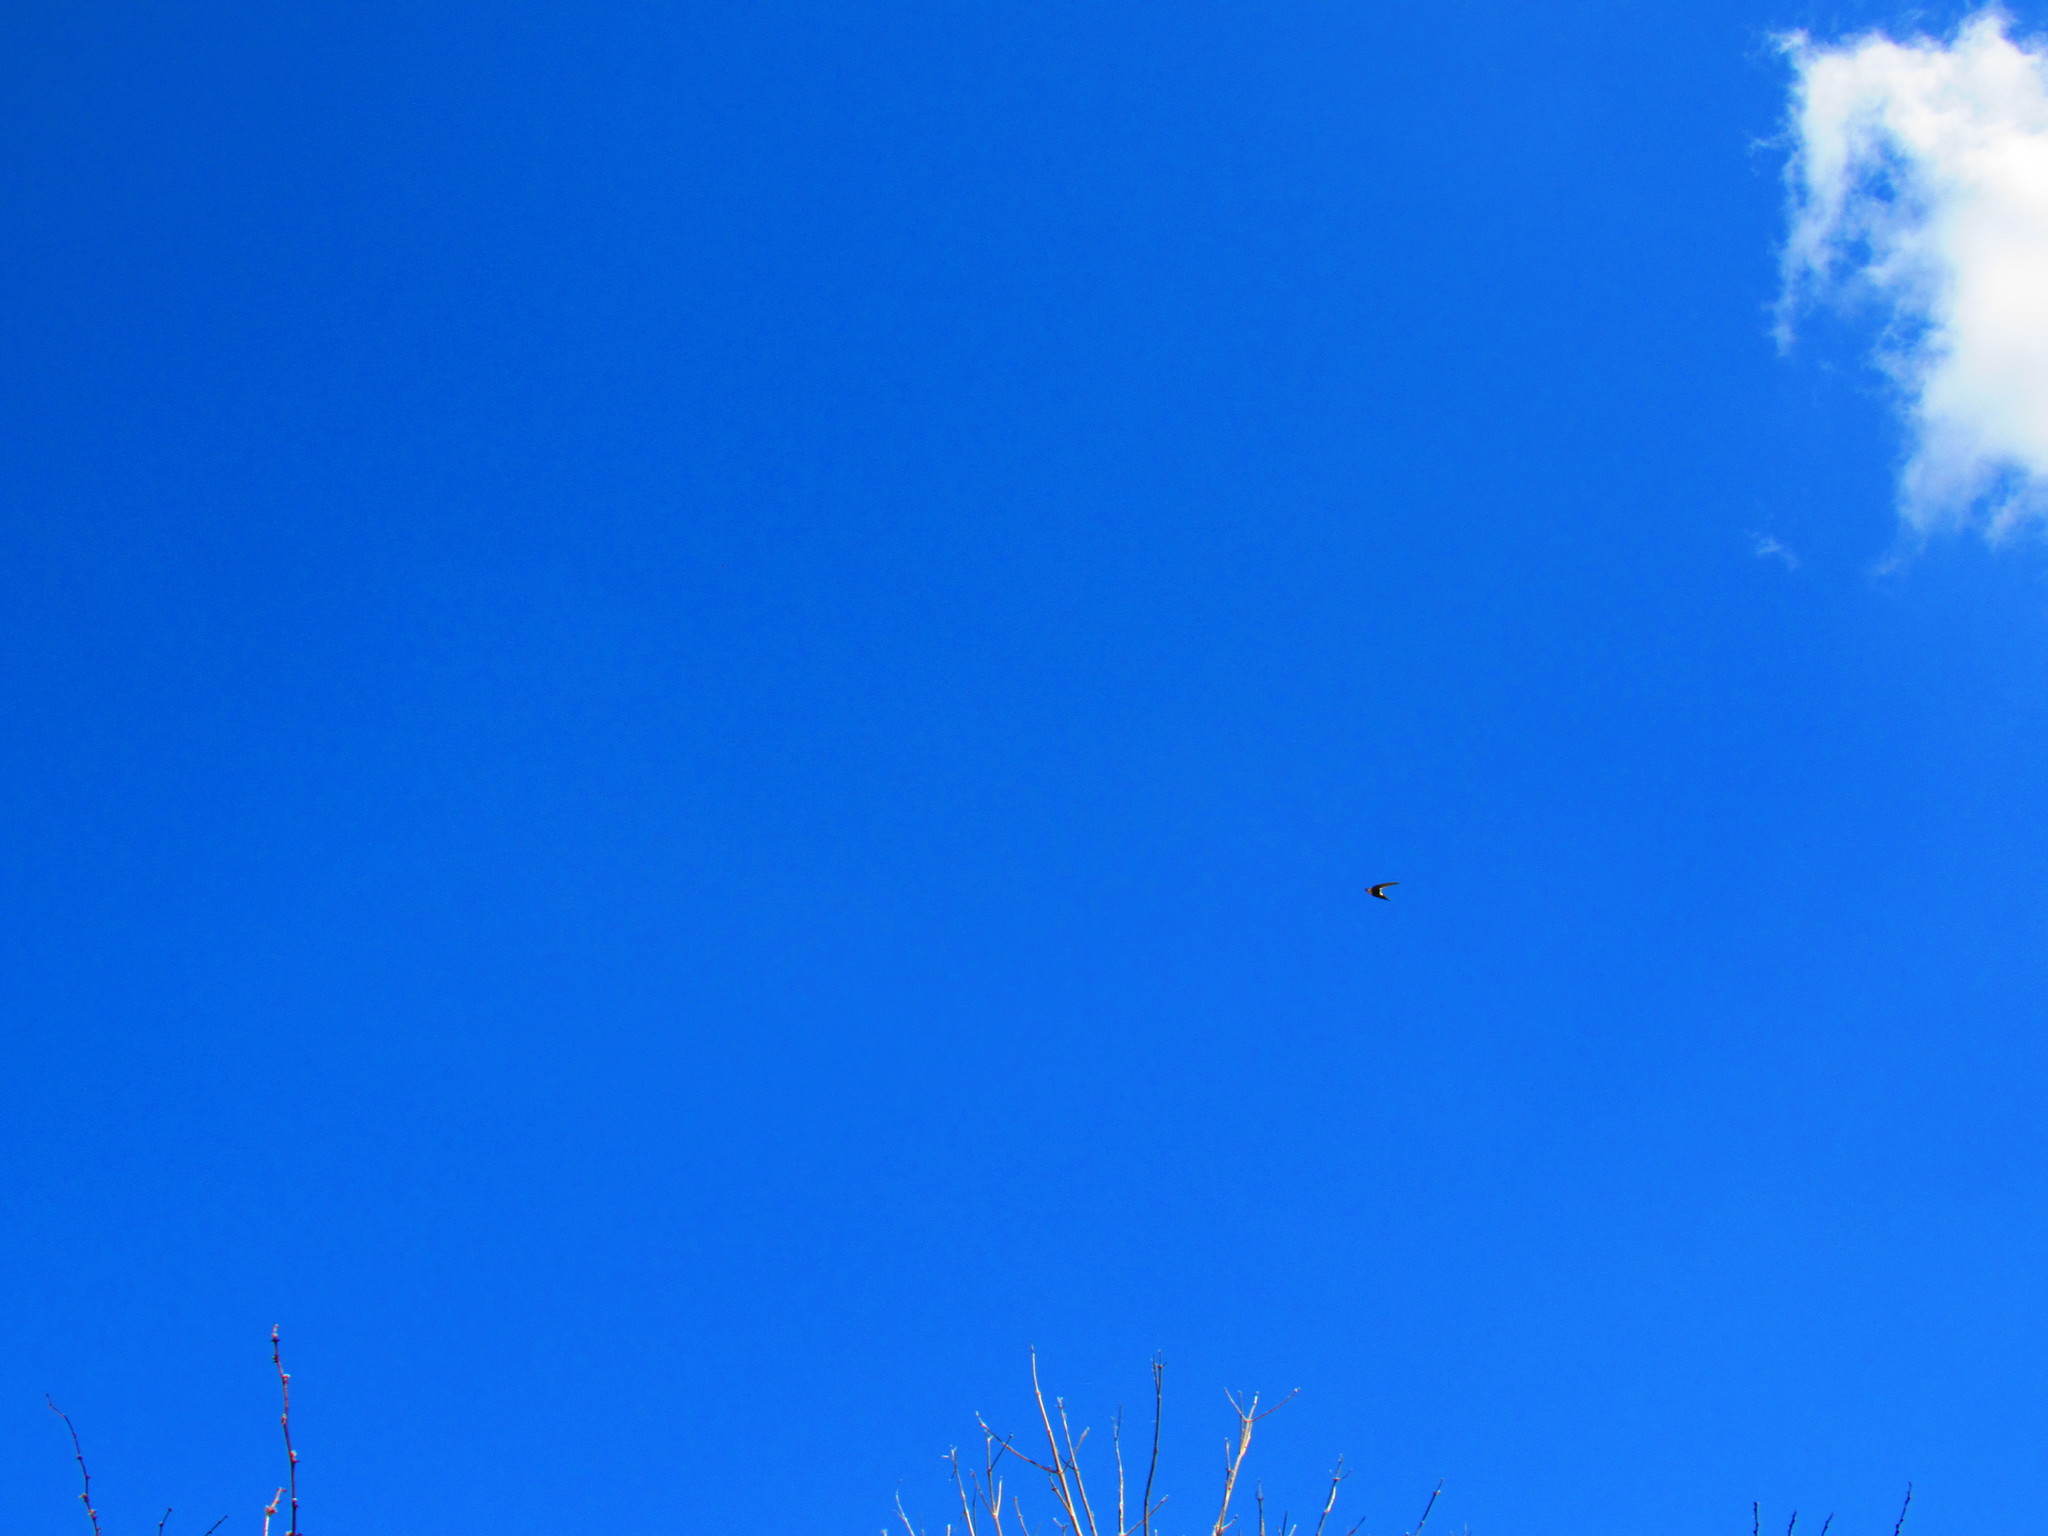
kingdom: Animalia
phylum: Chordata
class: Aves
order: Apodiformes
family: Apodidae
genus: Aeronautes
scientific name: Aeronautes saxatalis
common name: White-throated swift
